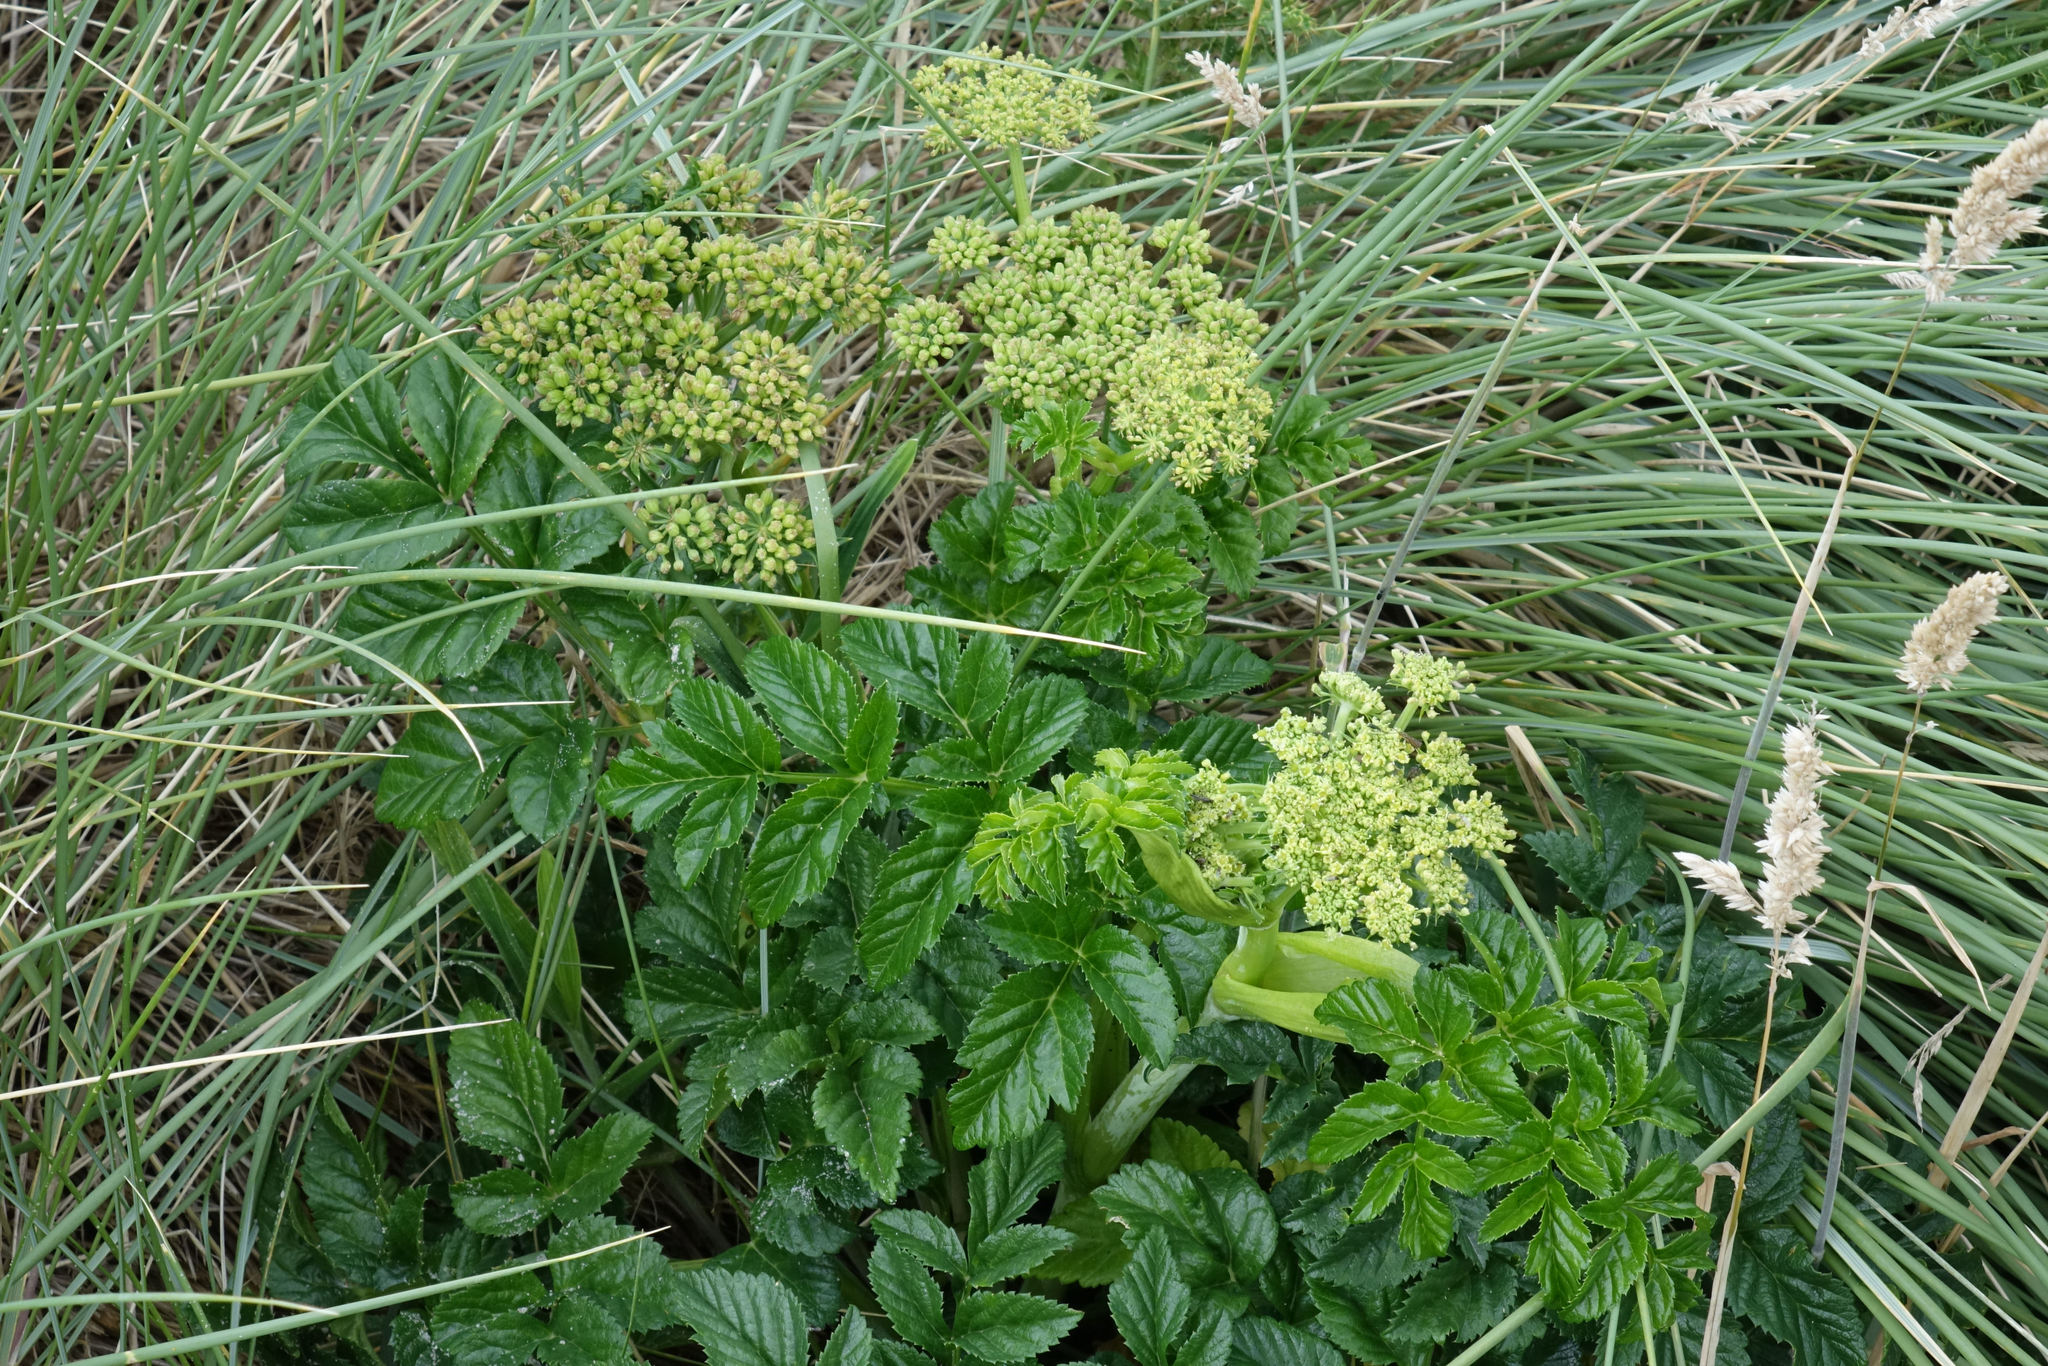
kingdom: Plantae
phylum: Tracheophyta
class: Magnoliopsida
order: Apiales
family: Apiaceae
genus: Angelica
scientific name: Angelica pachycarpa
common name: Portuguese angelica
